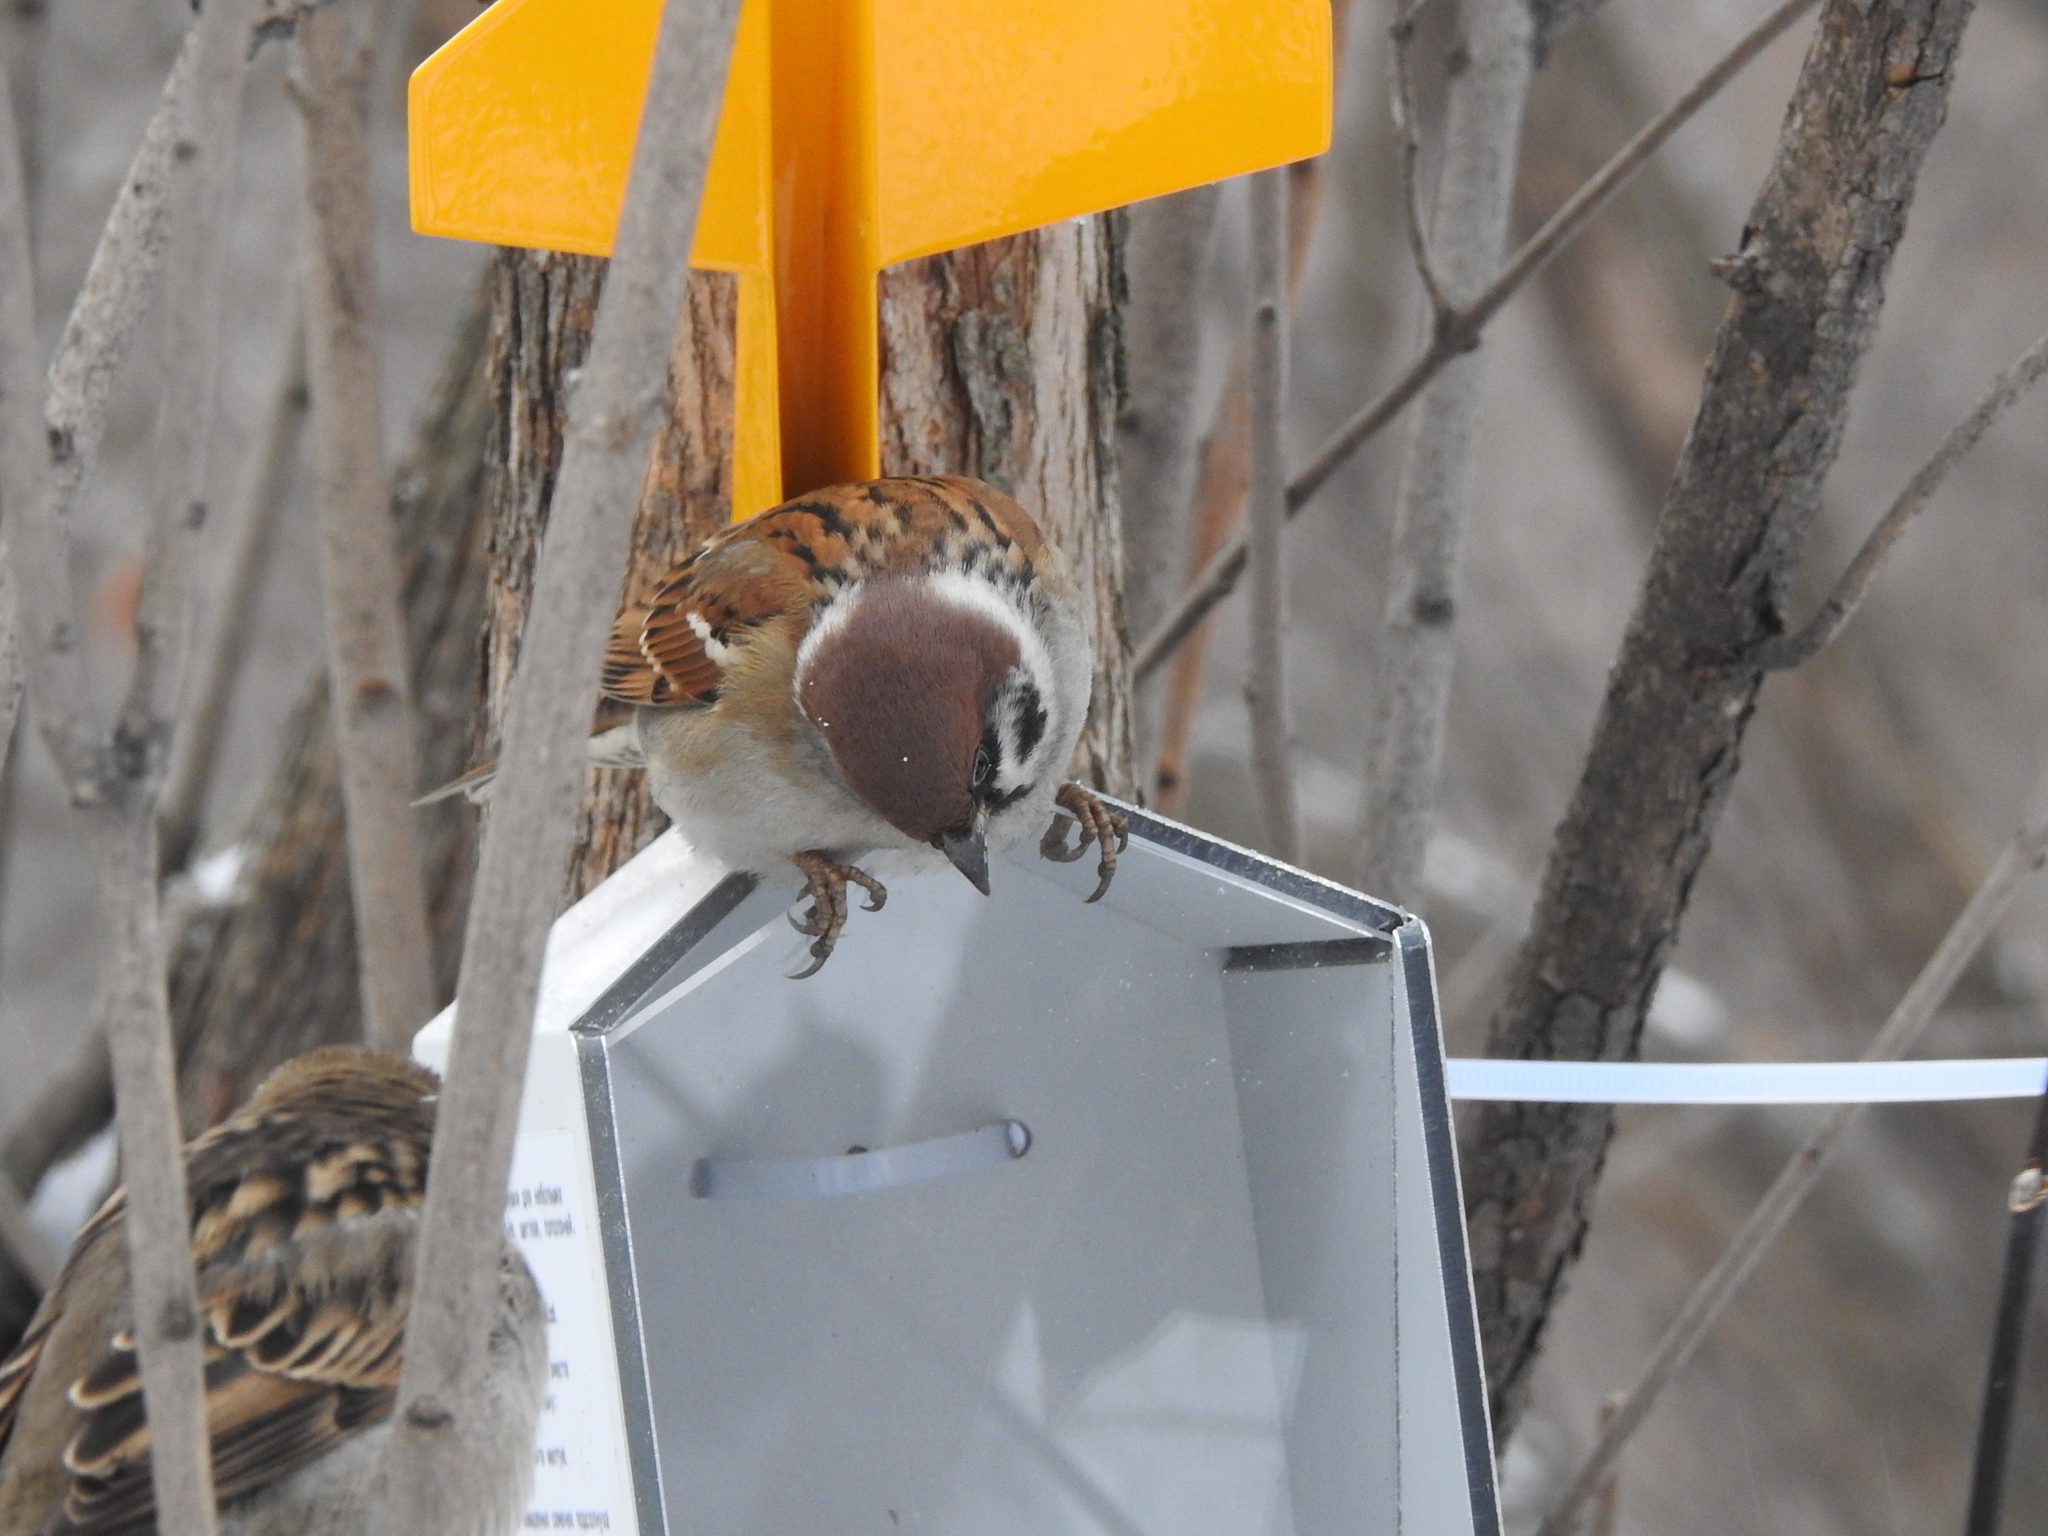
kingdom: Animalia
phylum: Chordata
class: Aves
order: Passeriformes
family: Passeridae
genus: Passer
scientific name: Passer montanus
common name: Eurasian tree sparrow
